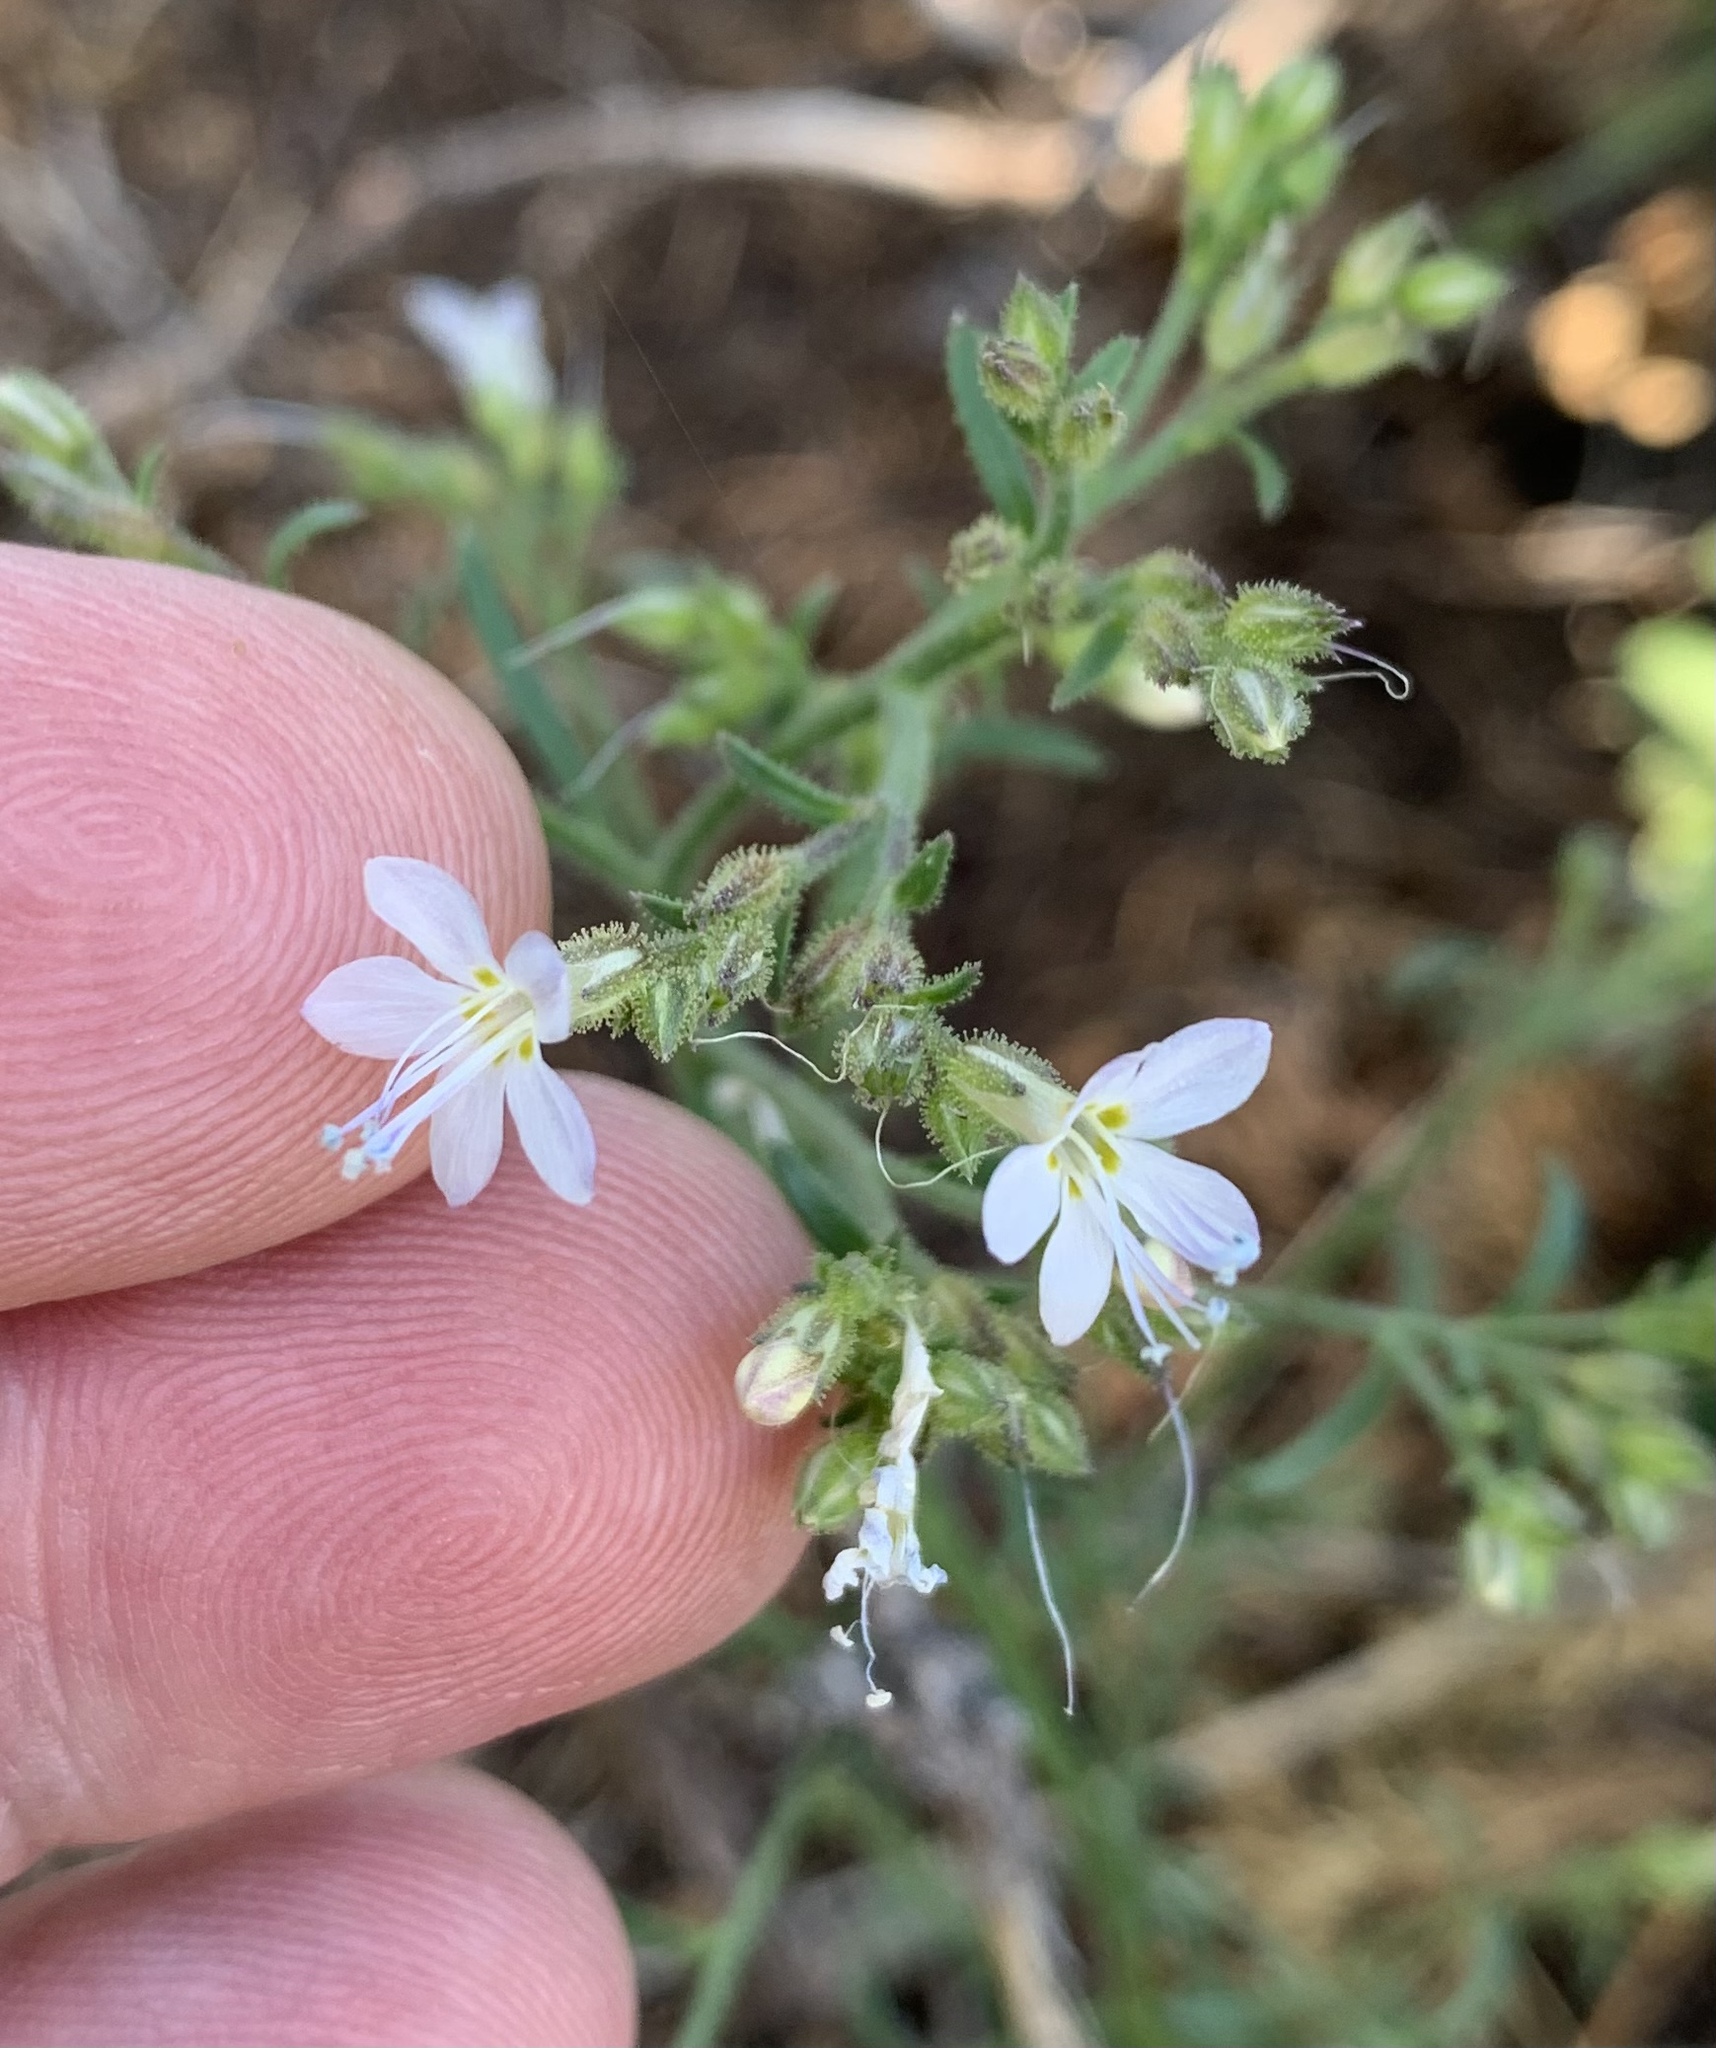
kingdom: Plantae
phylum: Tracheophyta
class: Magnoliopsida
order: Ericales
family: Polemoniaceae
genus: Aliciella
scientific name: Aliciella pinnatifida
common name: Sticky gilia
